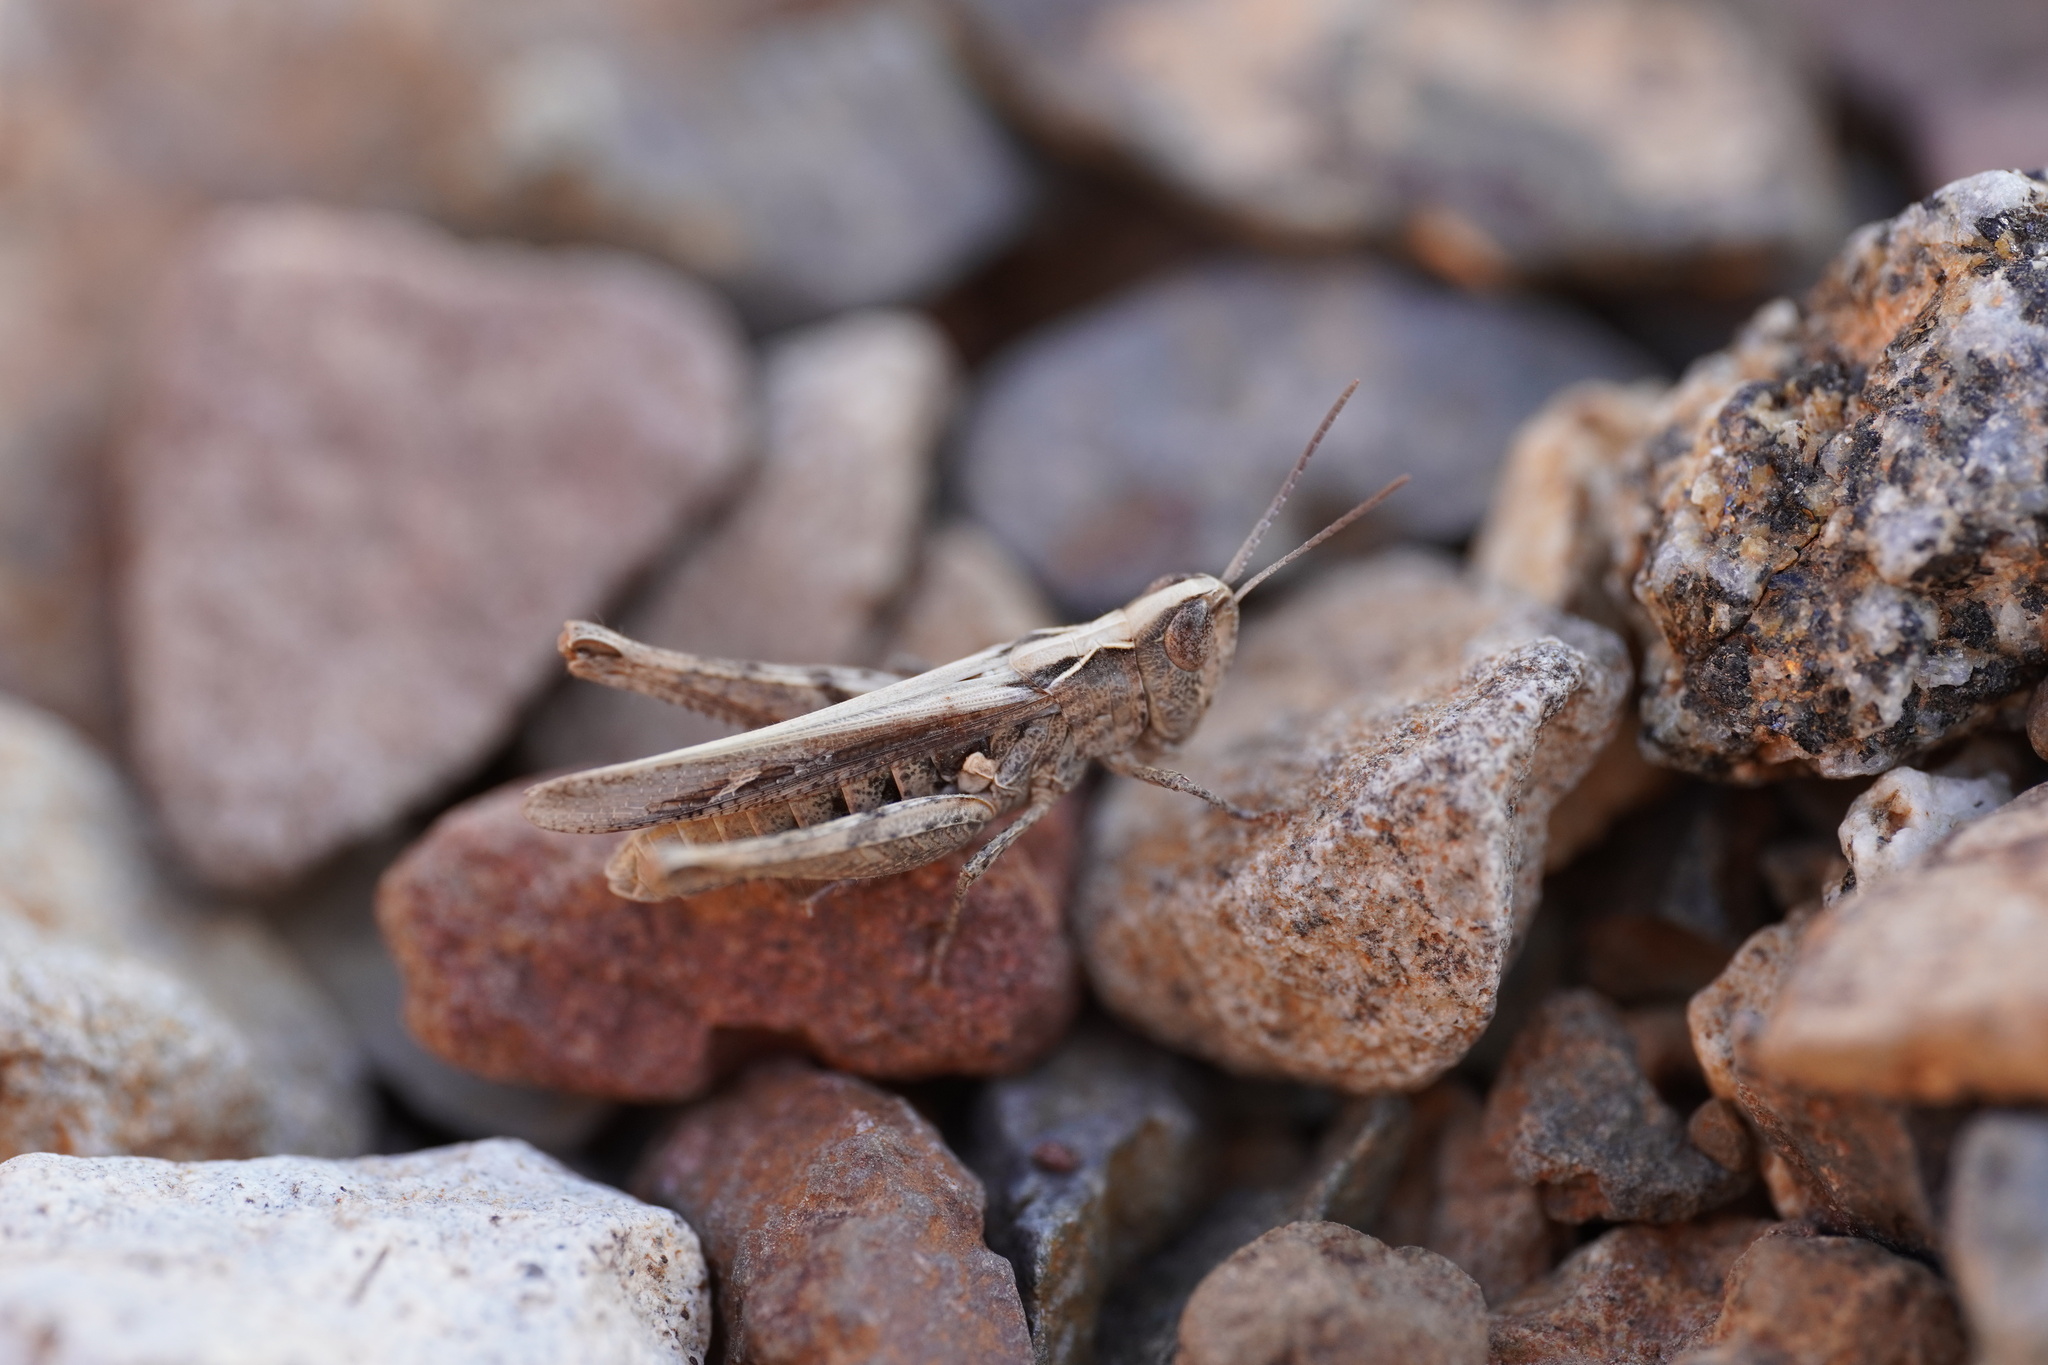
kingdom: Animalia
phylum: Arthropoda
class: Insecta
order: Orthoptera
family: Acrididae
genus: Omocestus
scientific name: Omocestus simonyi
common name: Purpurarian grasshopper
